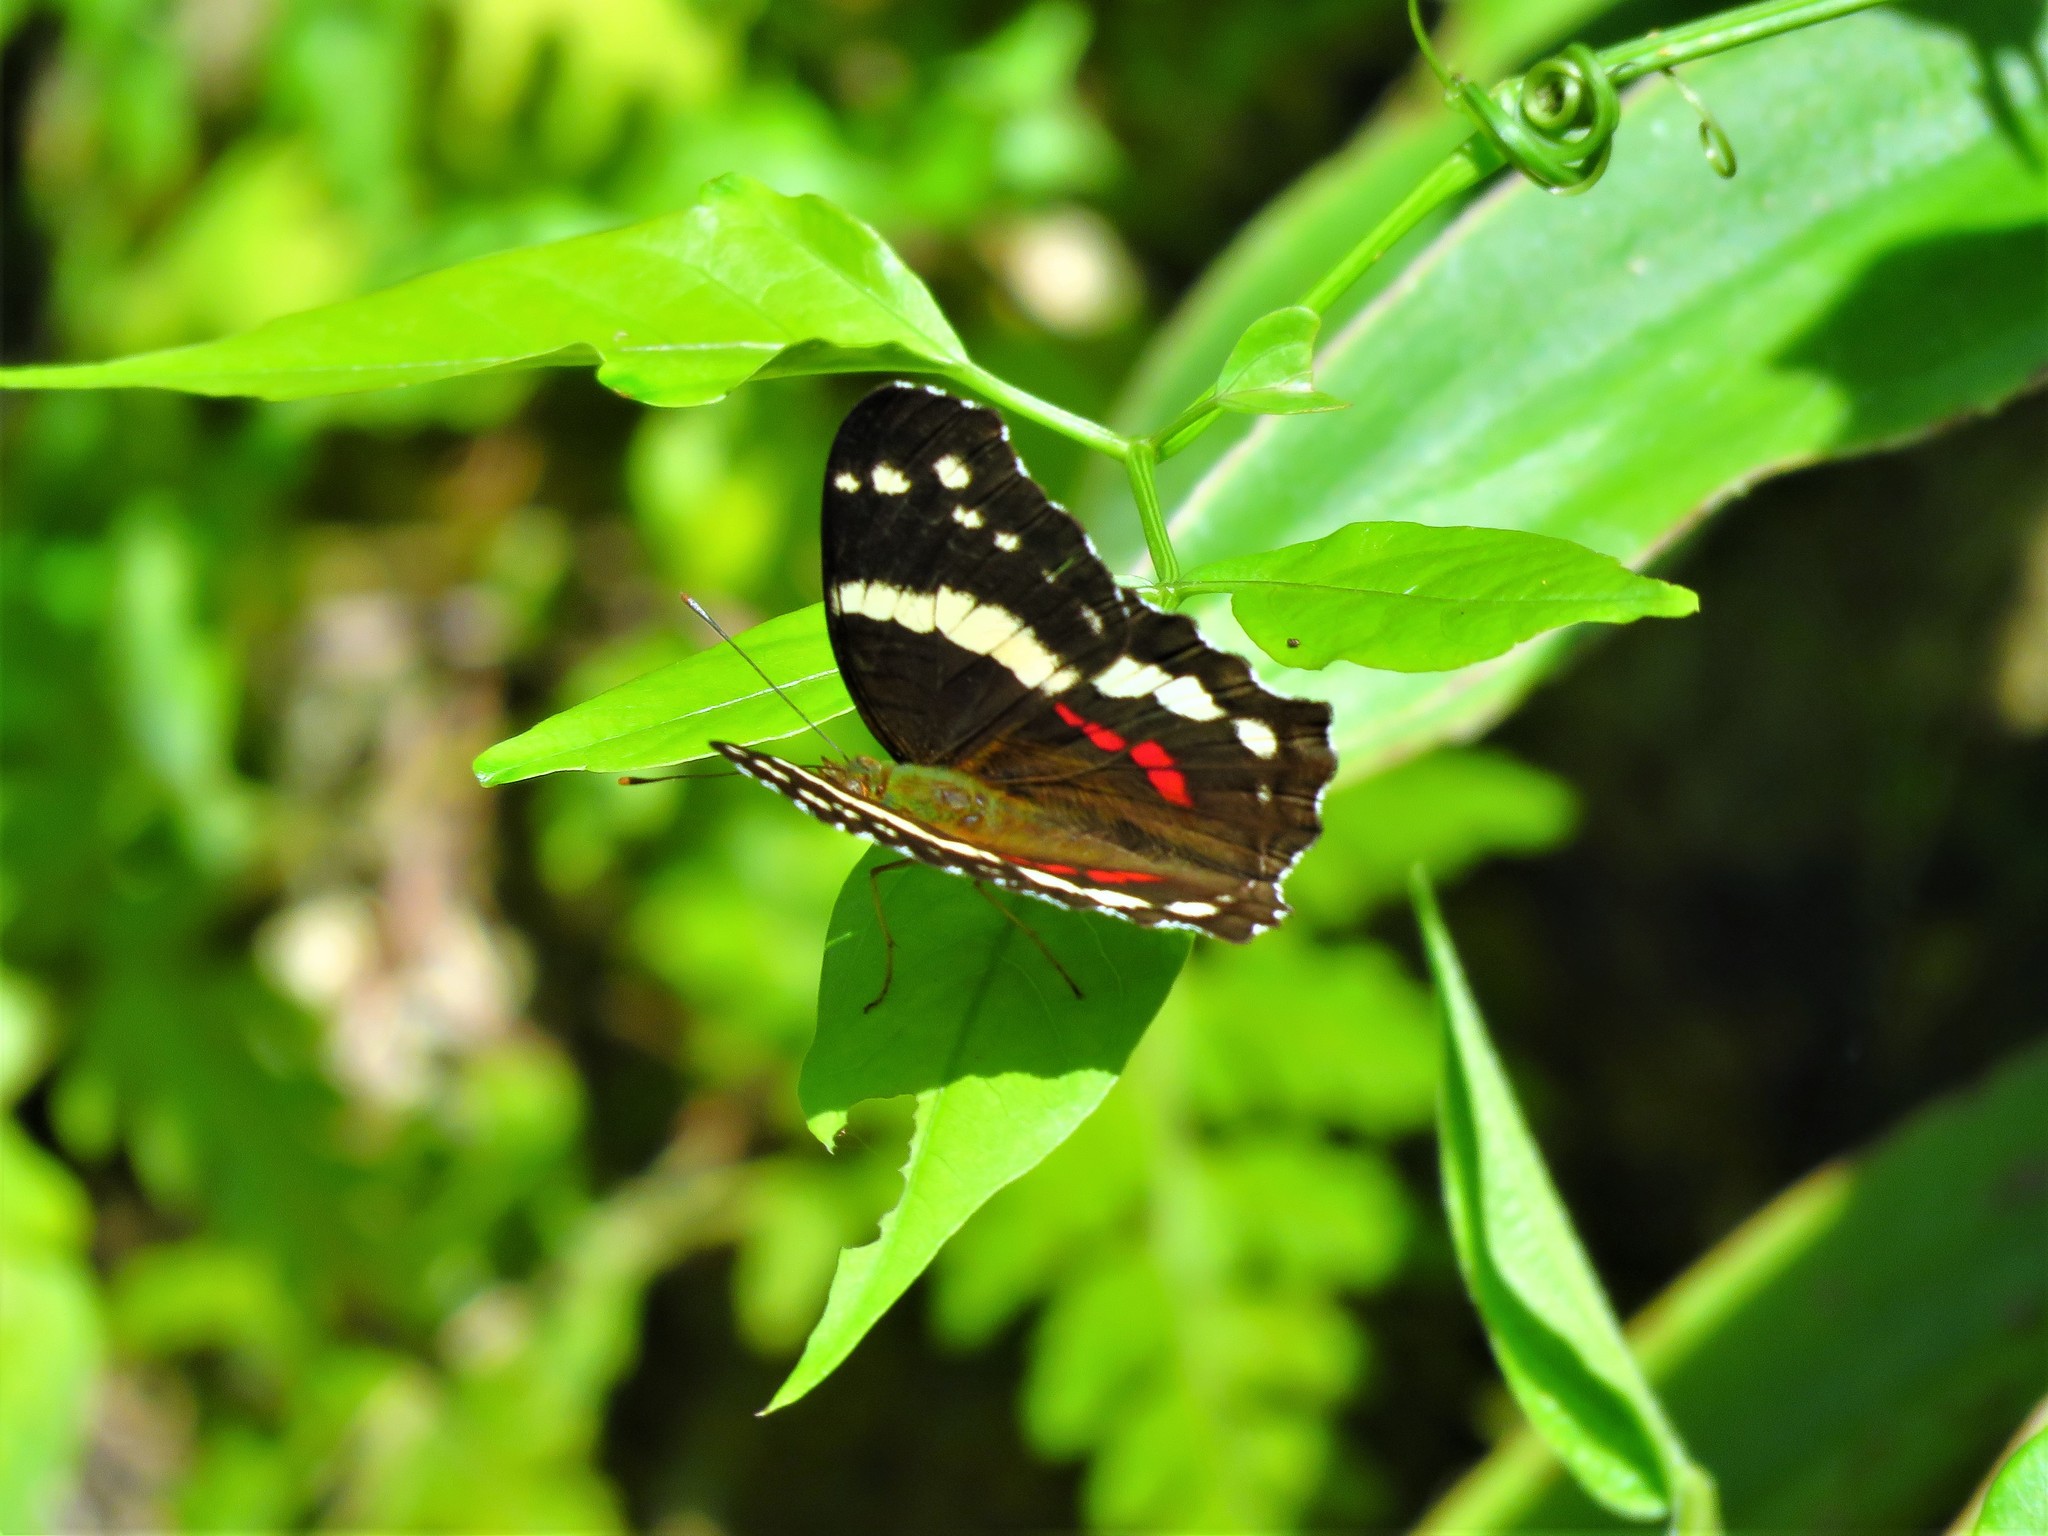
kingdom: Animalia
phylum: Arthropoda
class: Insecta
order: Lepidoptera
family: Nymphalidae
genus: Anartia
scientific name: Anartia fatima
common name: Banded peacock
